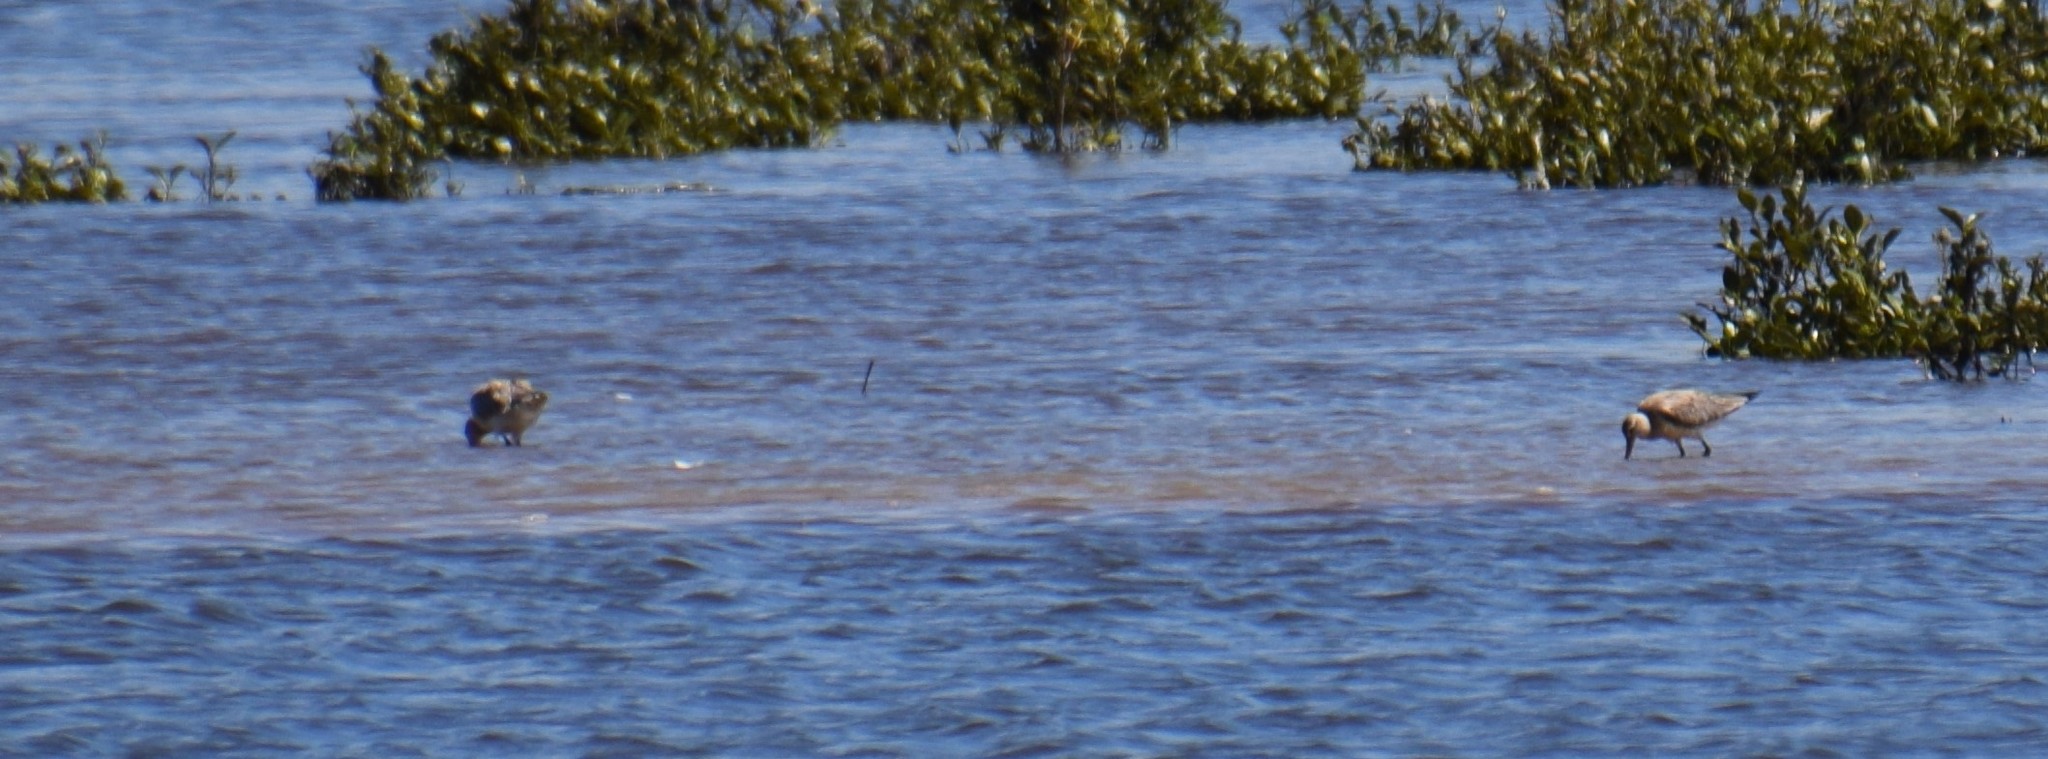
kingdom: Animalia
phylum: Chordata
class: Aves
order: Charadriiformes
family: Scolopacidae
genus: Limosa
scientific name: Limosa lapponica
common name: Bar-tailed godwit
